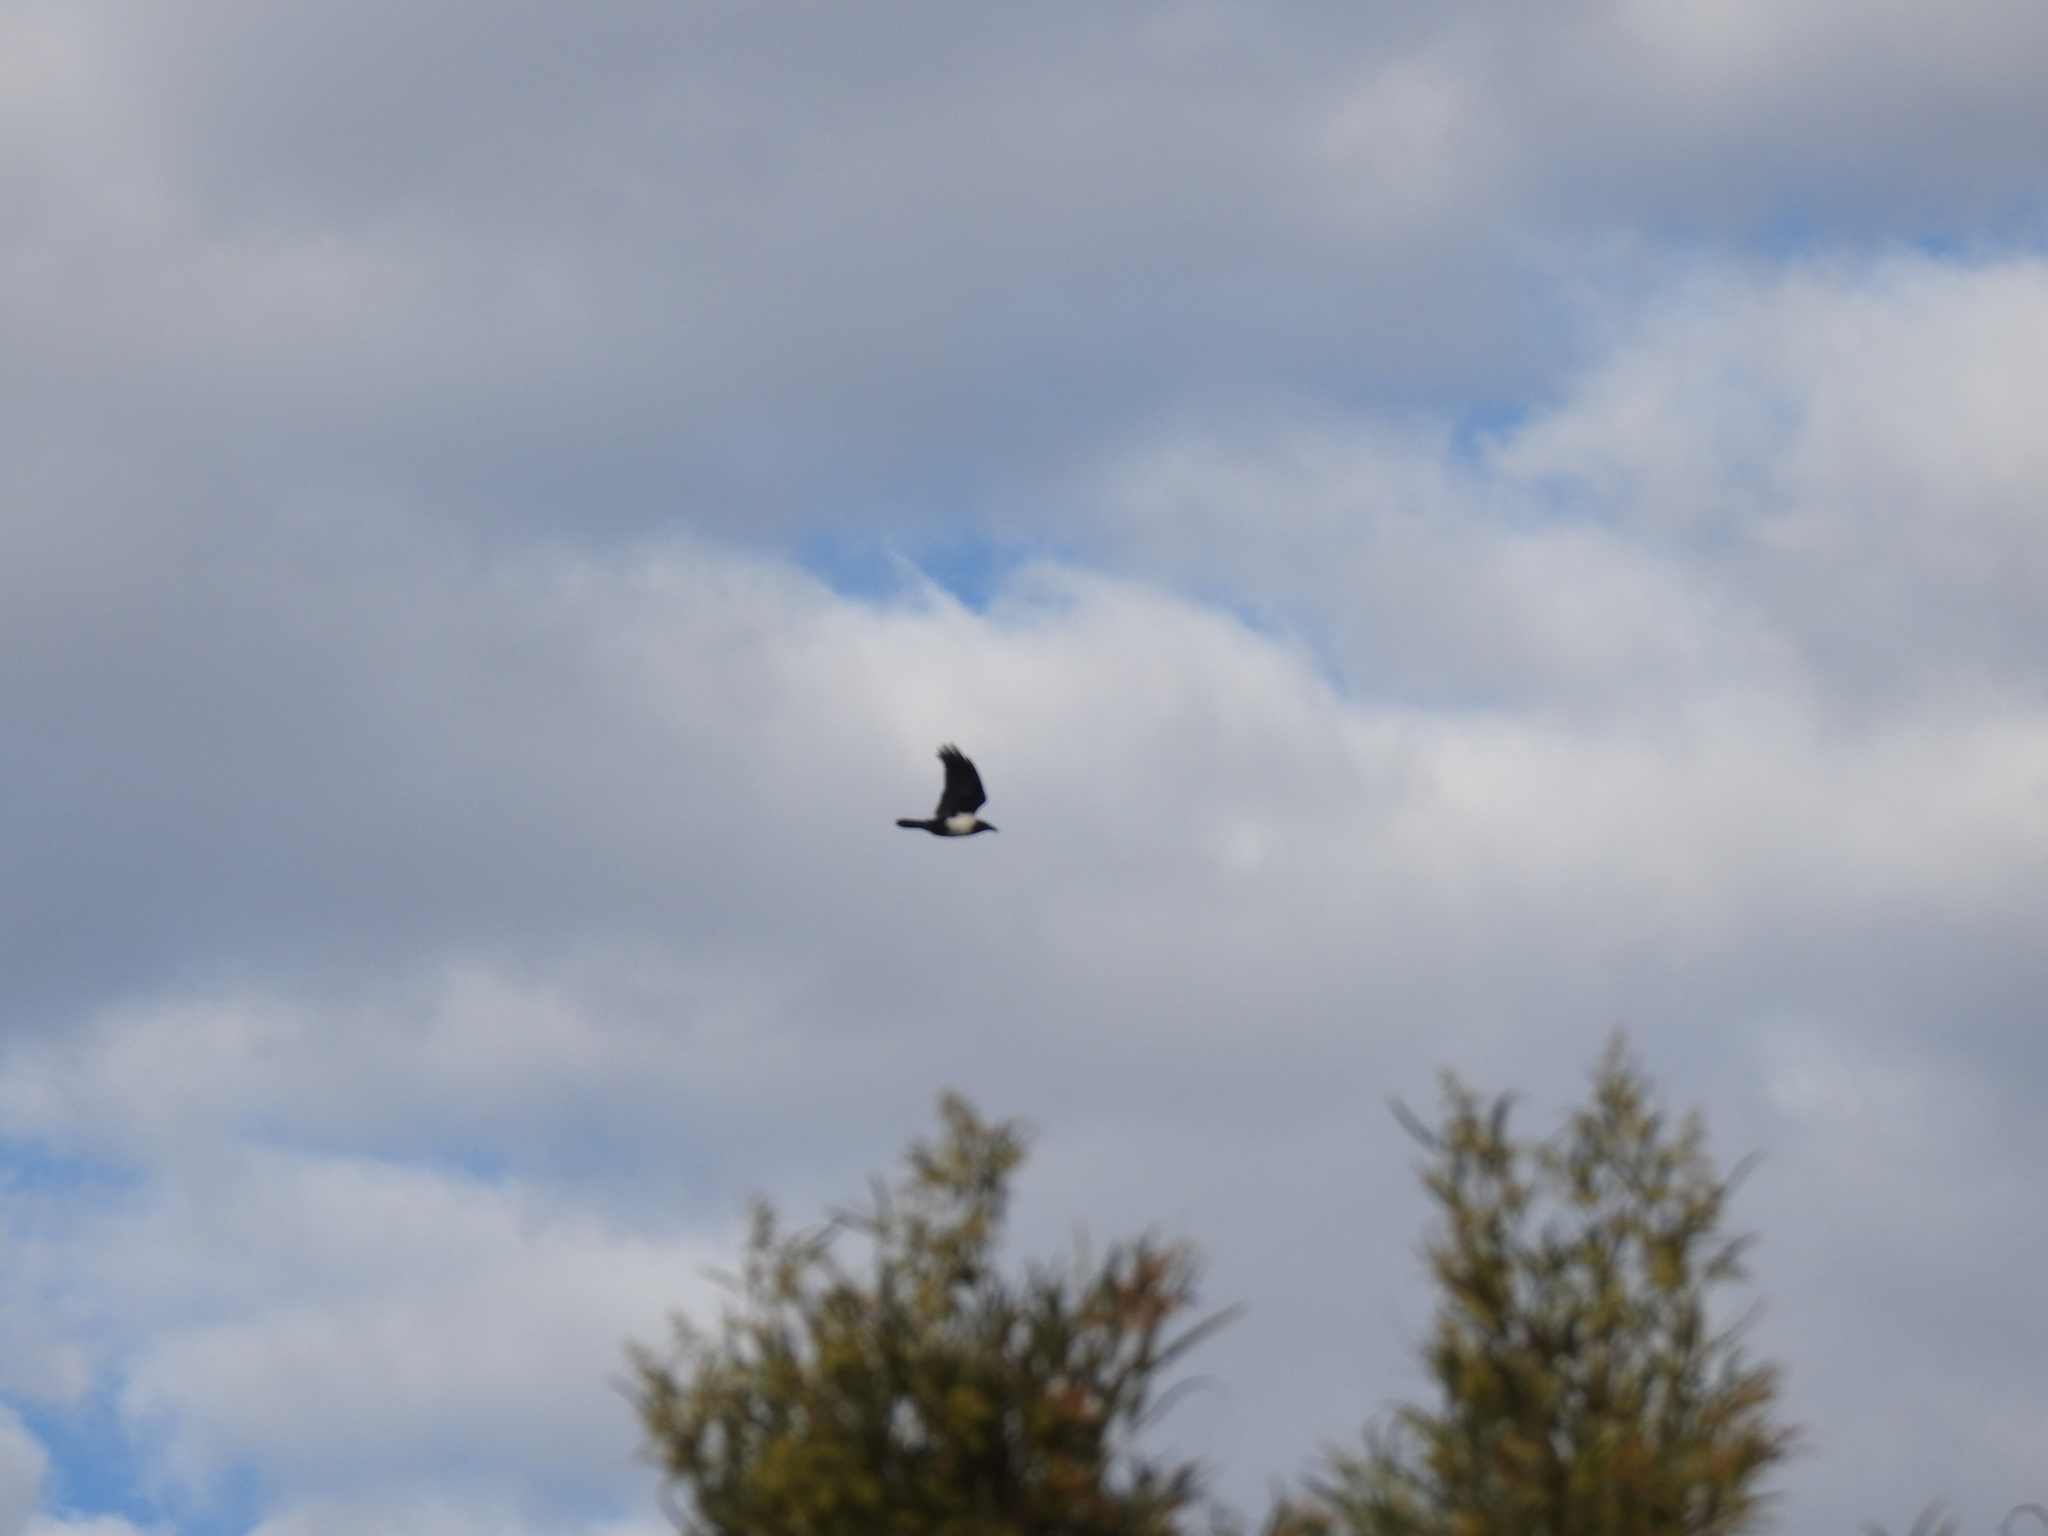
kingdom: Animalia
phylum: Chordata
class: Aves
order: Passeriformes
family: Corvidae
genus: Corvus
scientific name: Corvus albus
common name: Pied crow
